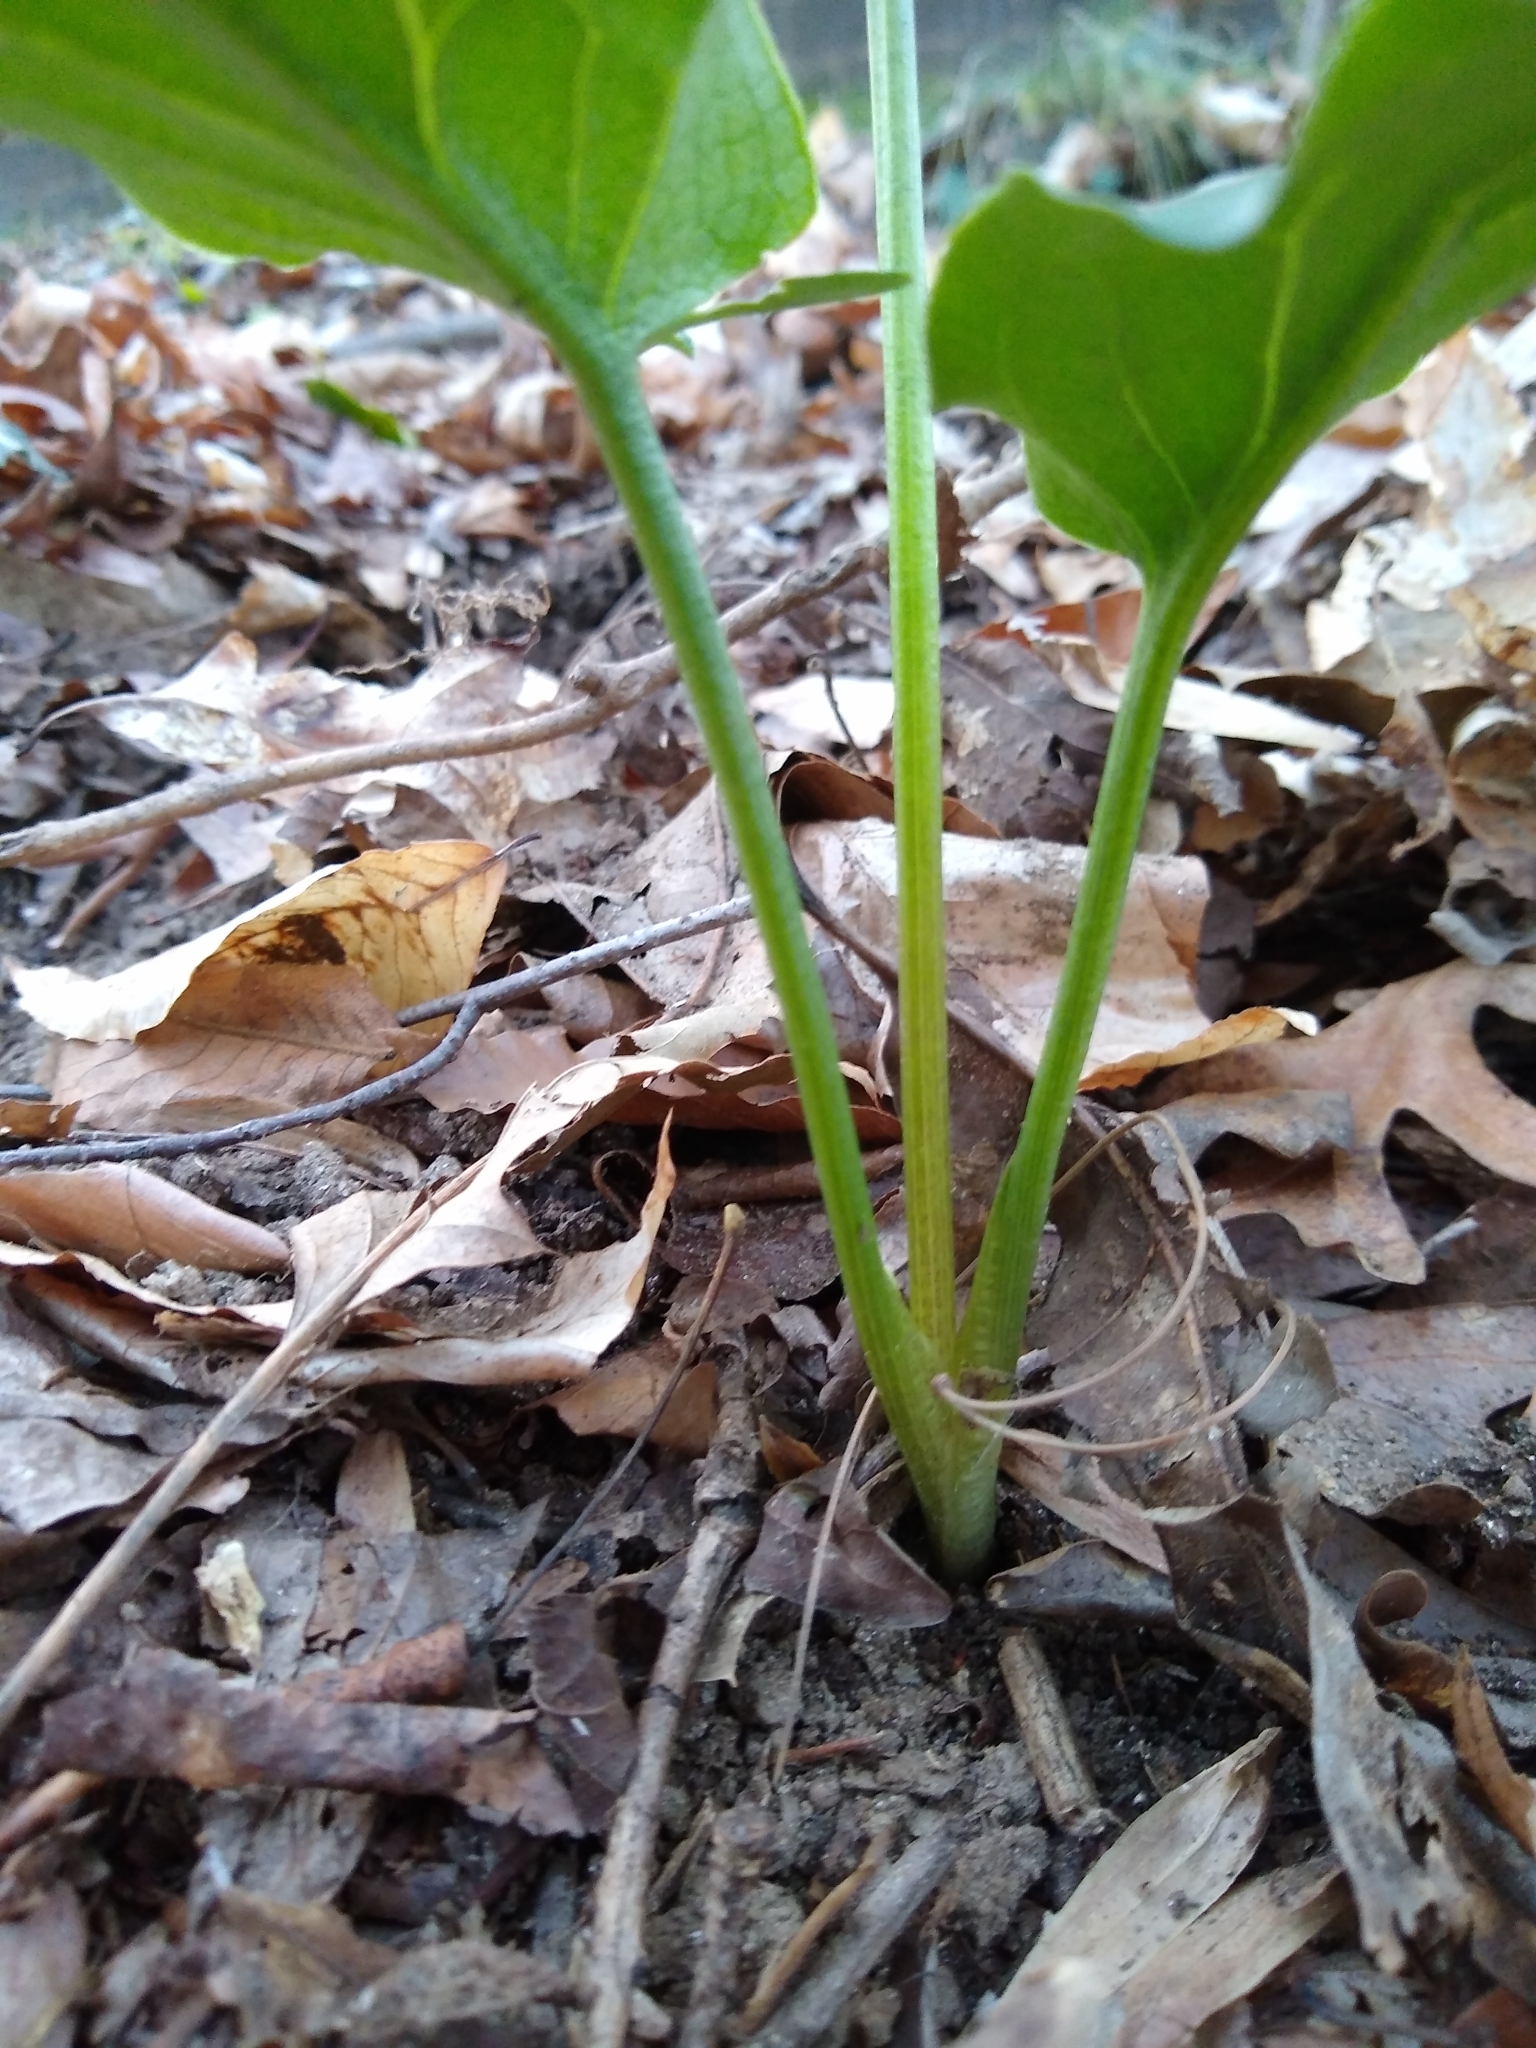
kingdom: Plantae
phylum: Tracheophyta
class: Liliopsida
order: Alismatales
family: Araceae
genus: Arum
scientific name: Arum italicum
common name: Italian lords-and-ladies
